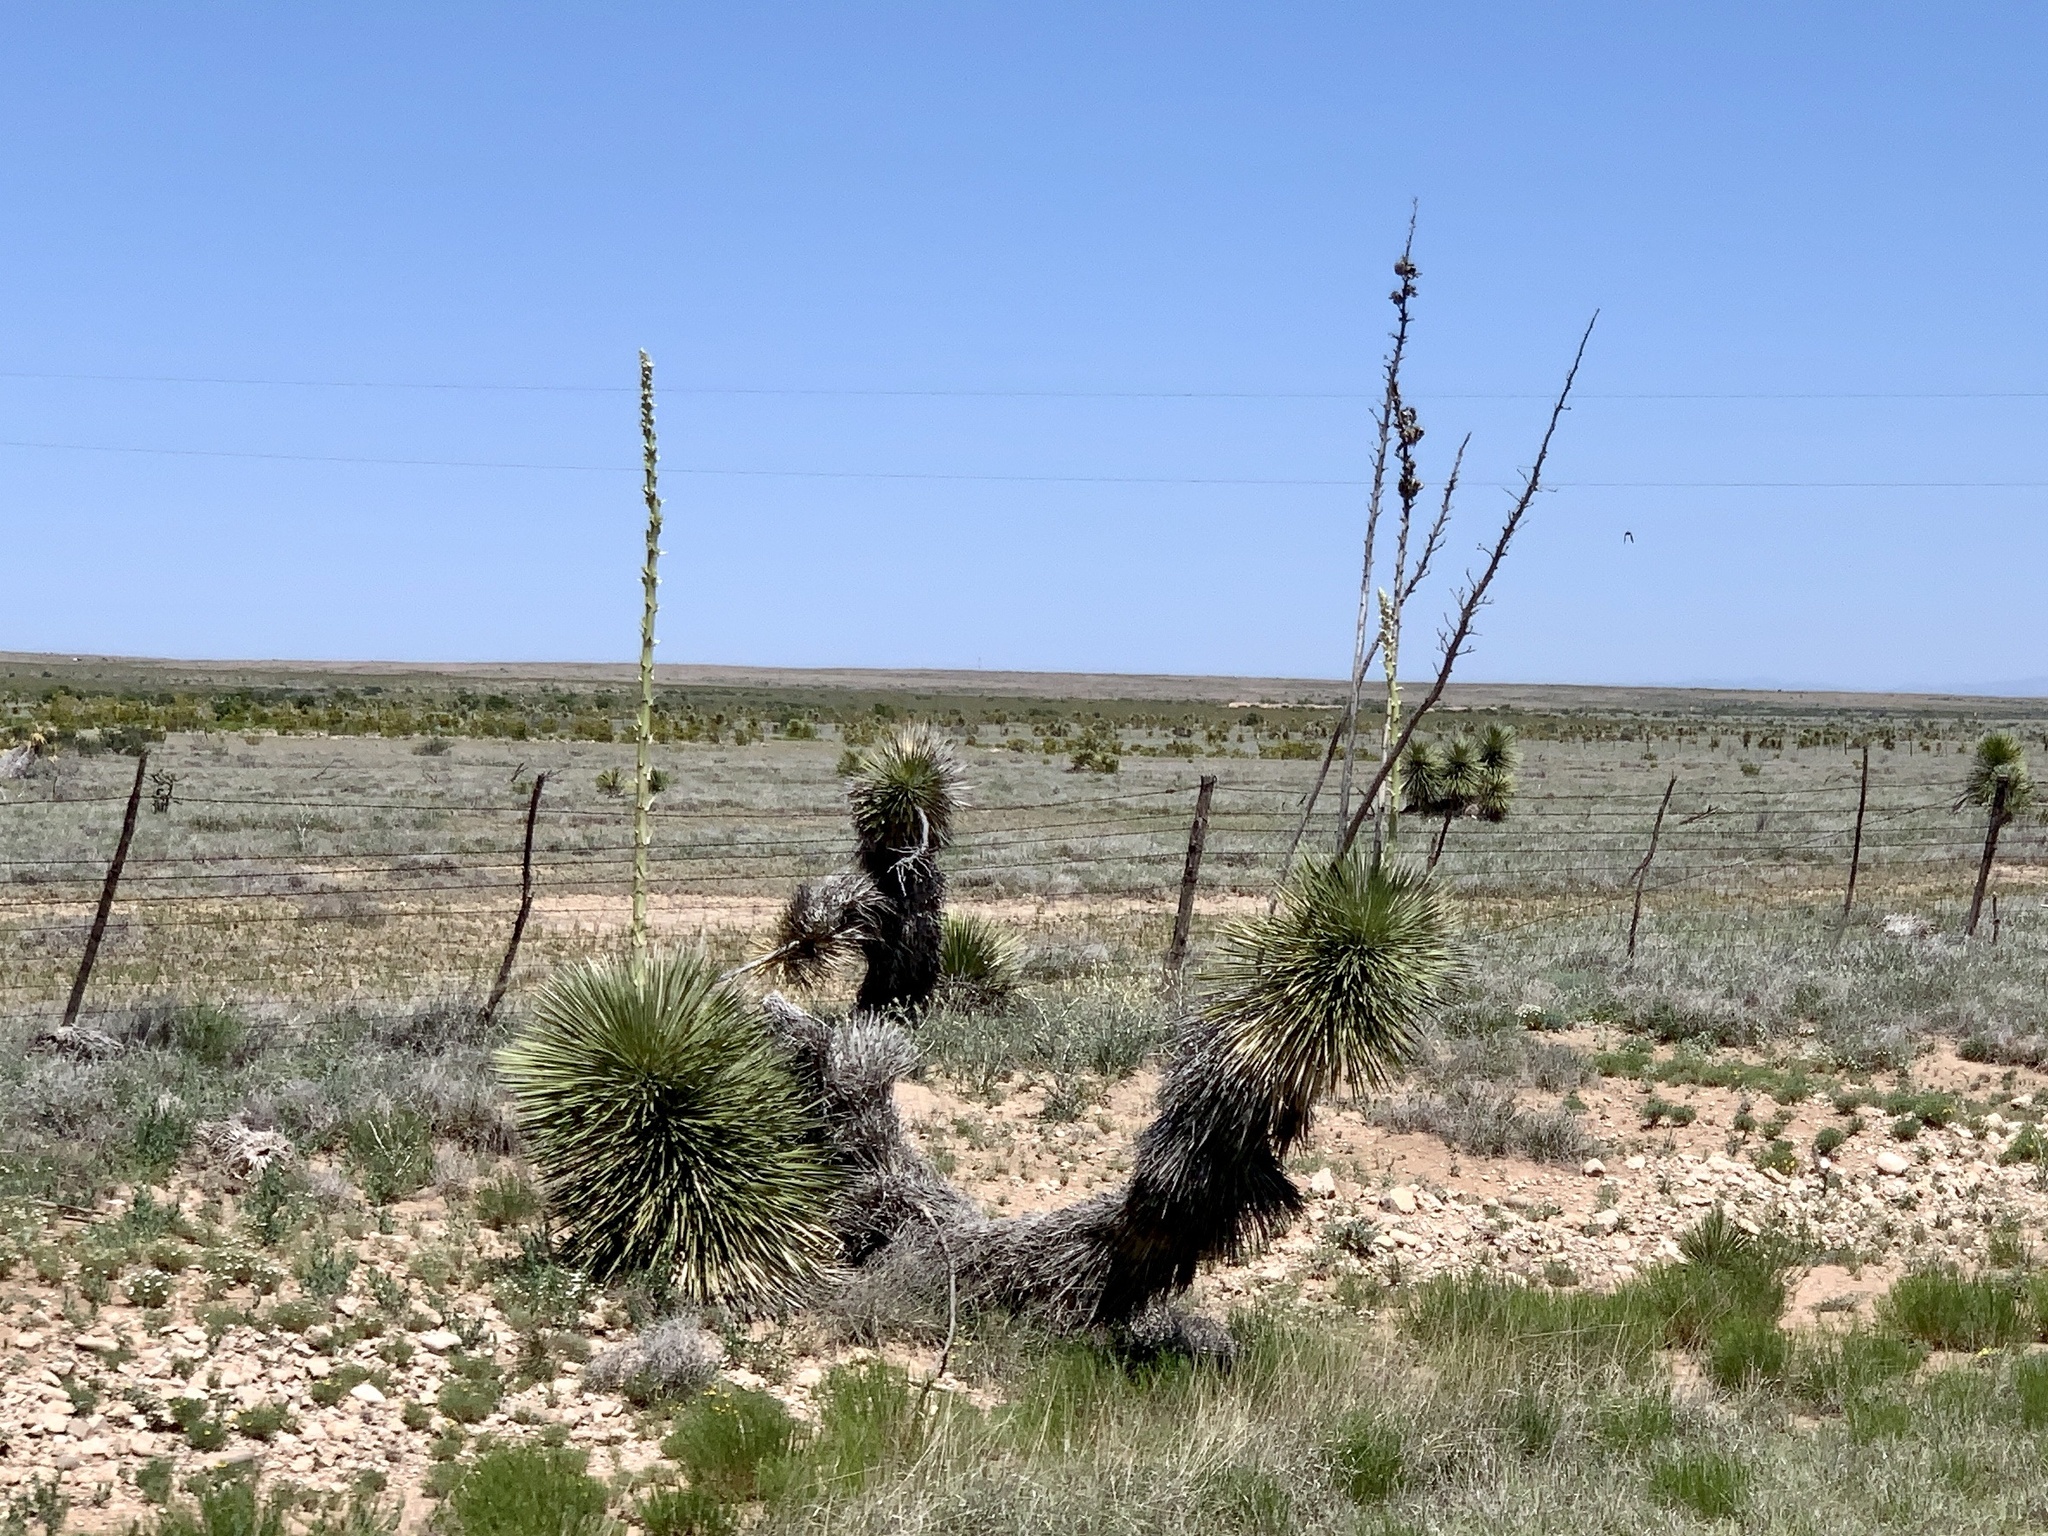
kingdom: Plantae
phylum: Tracheophyta
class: Liliopsida
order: Asparagales
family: Asparagaceae
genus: Yucca
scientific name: Yucca elata
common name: Palmella
